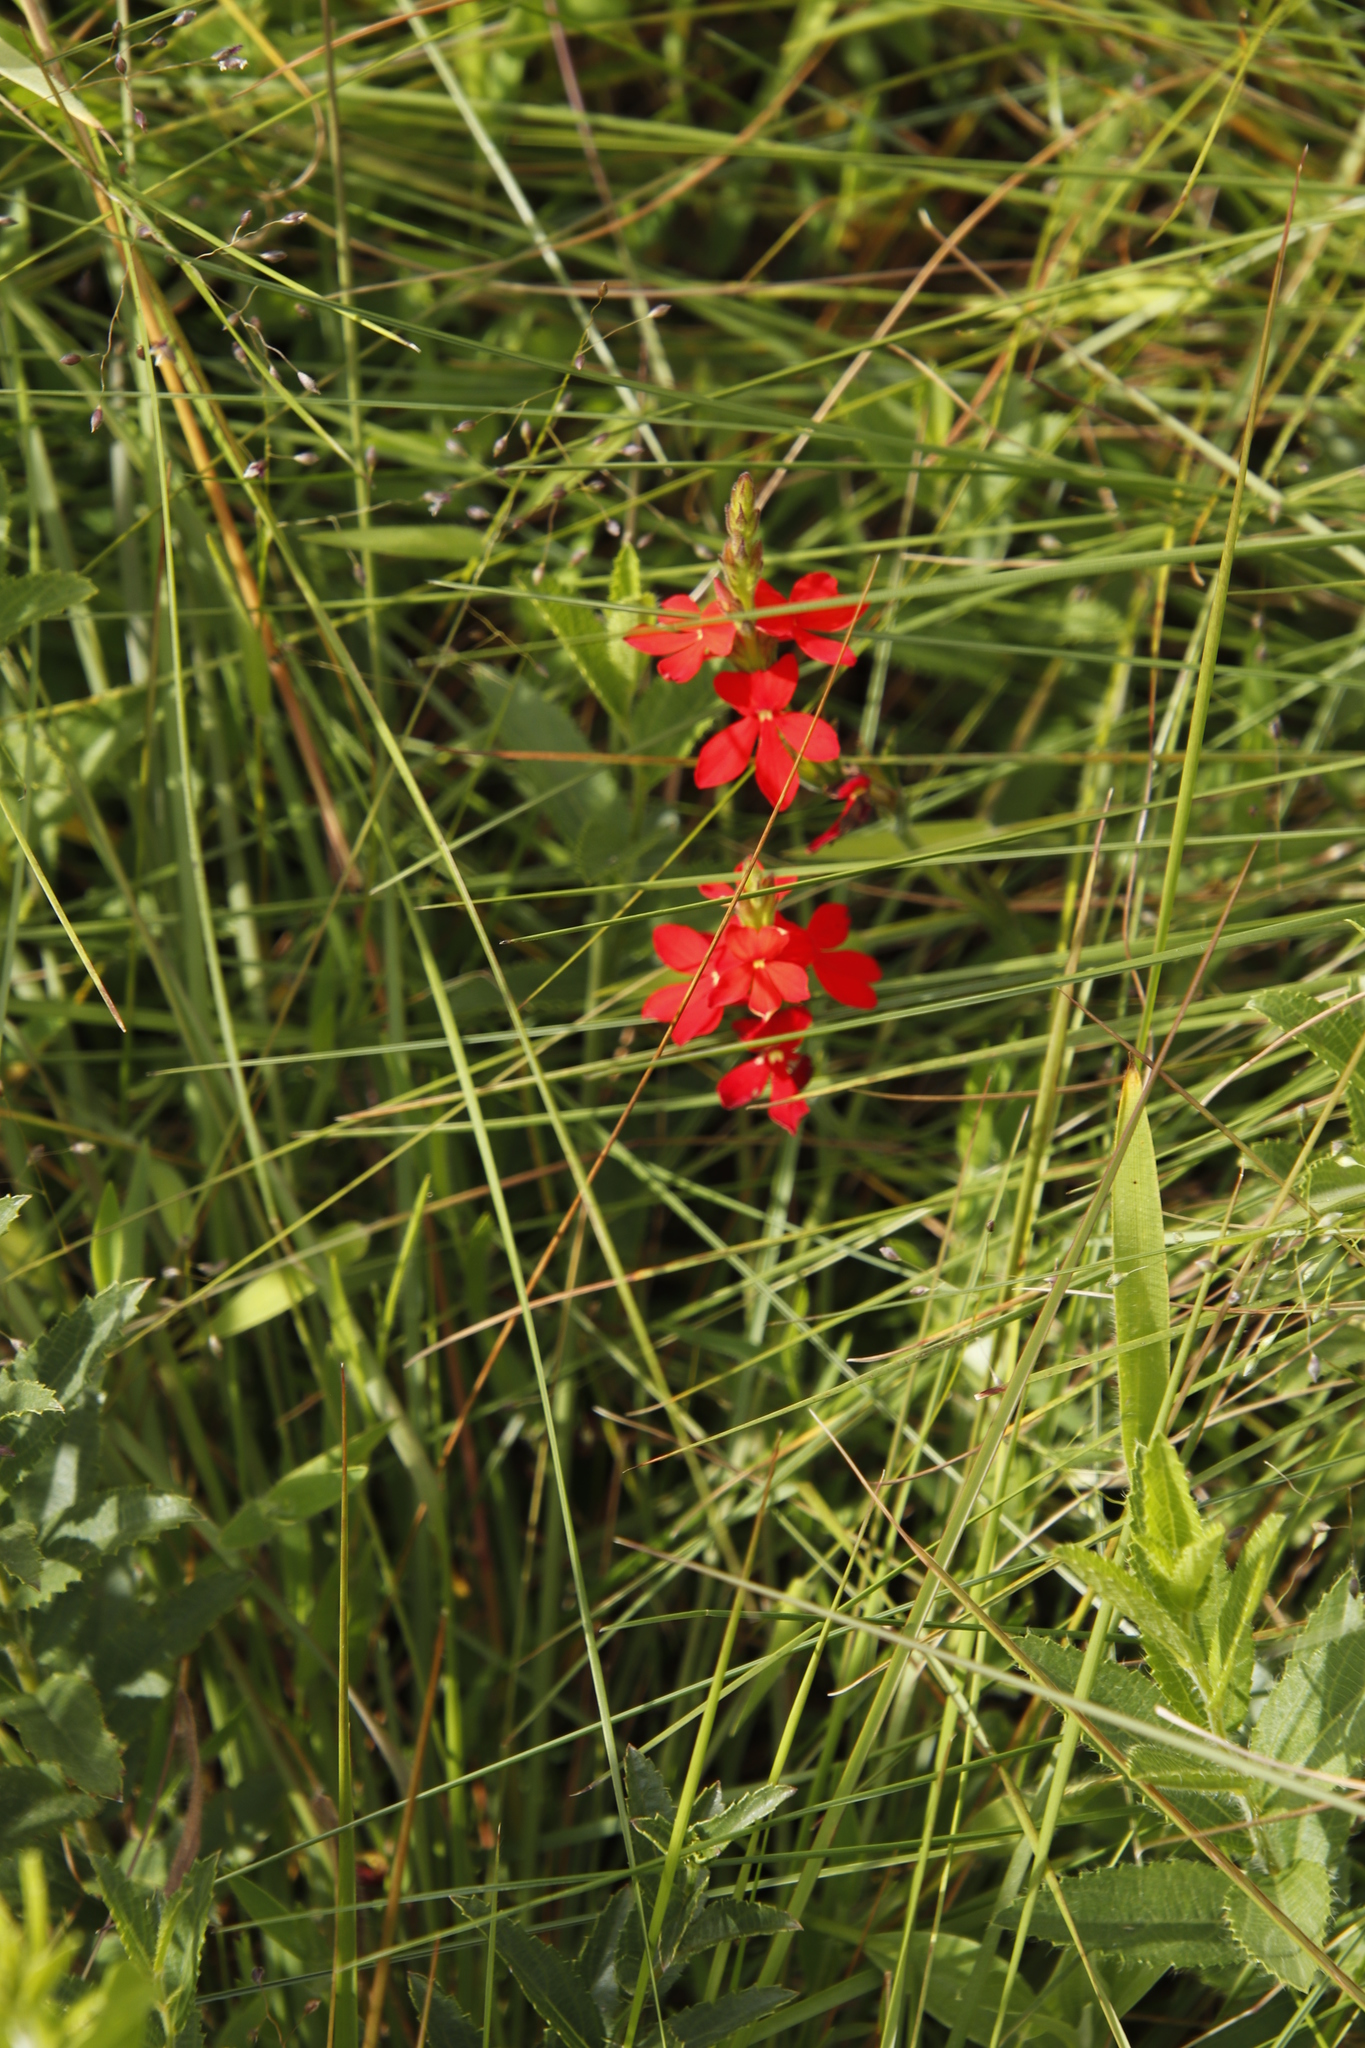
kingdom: Plantae
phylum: Tracheophyta
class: Magnoliopsida
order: Lamiales
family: Orobanchaceae
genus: Striga
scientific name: Striga asiatica
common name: Asiatic witchweed
